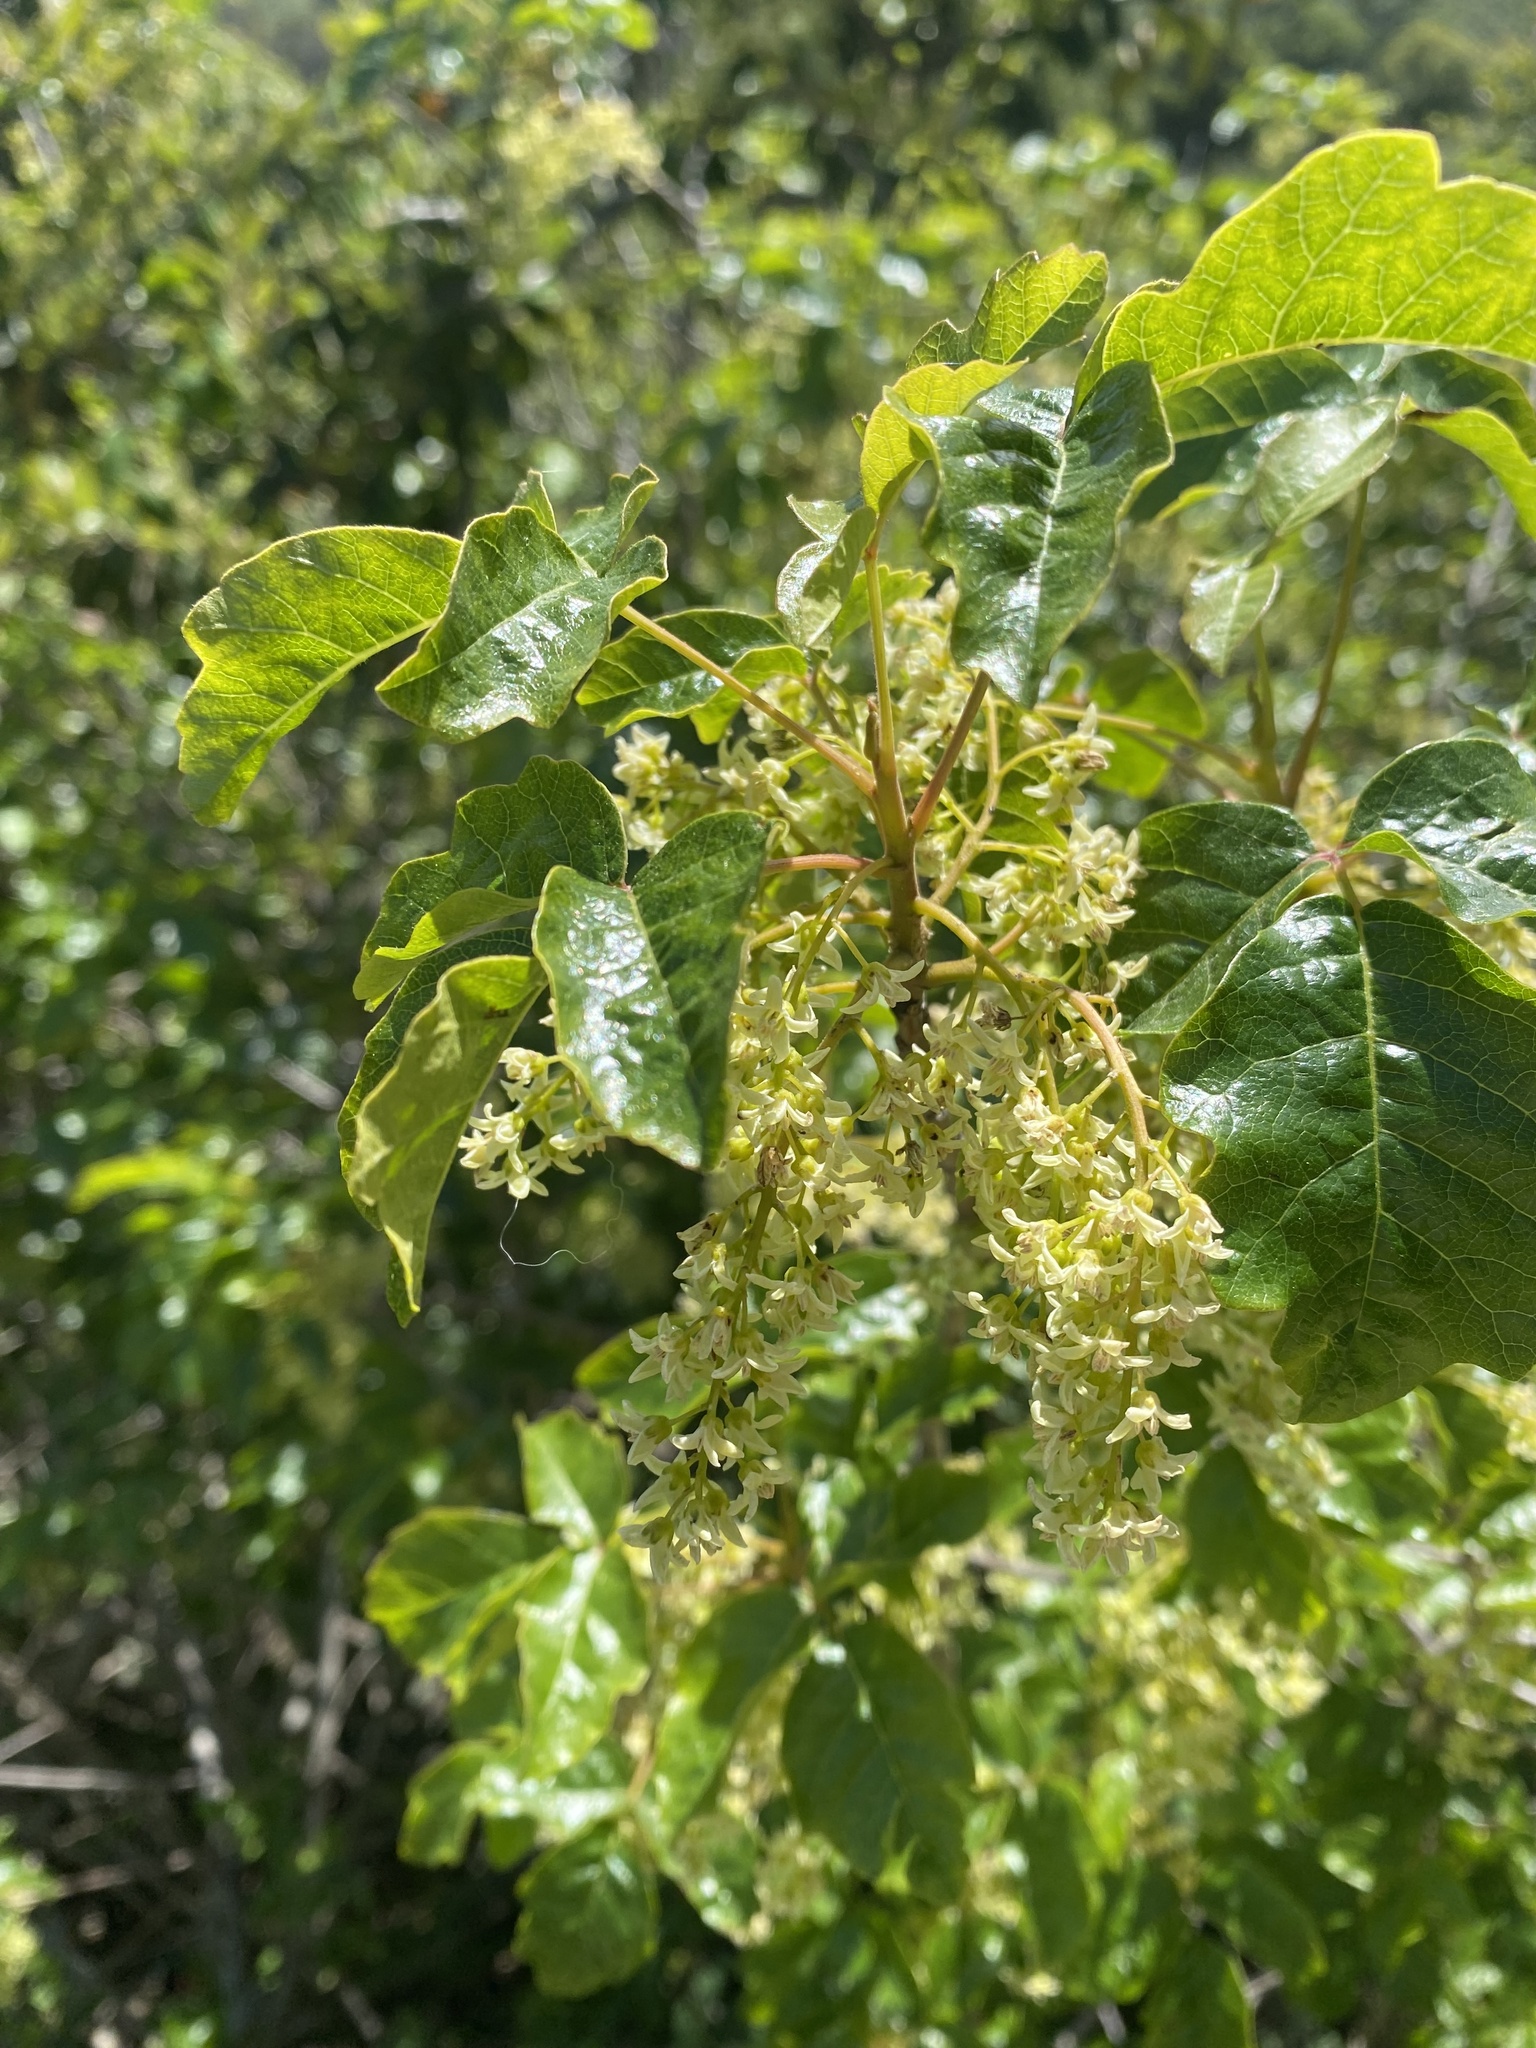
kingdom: Plantae
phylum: Tracheophyta
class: Magnoliopsida
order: Sapindales
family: Anacardiaceae
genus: Toxicodendron
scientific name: Toxicodendron diversilobum
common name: Pacific poison-oak
